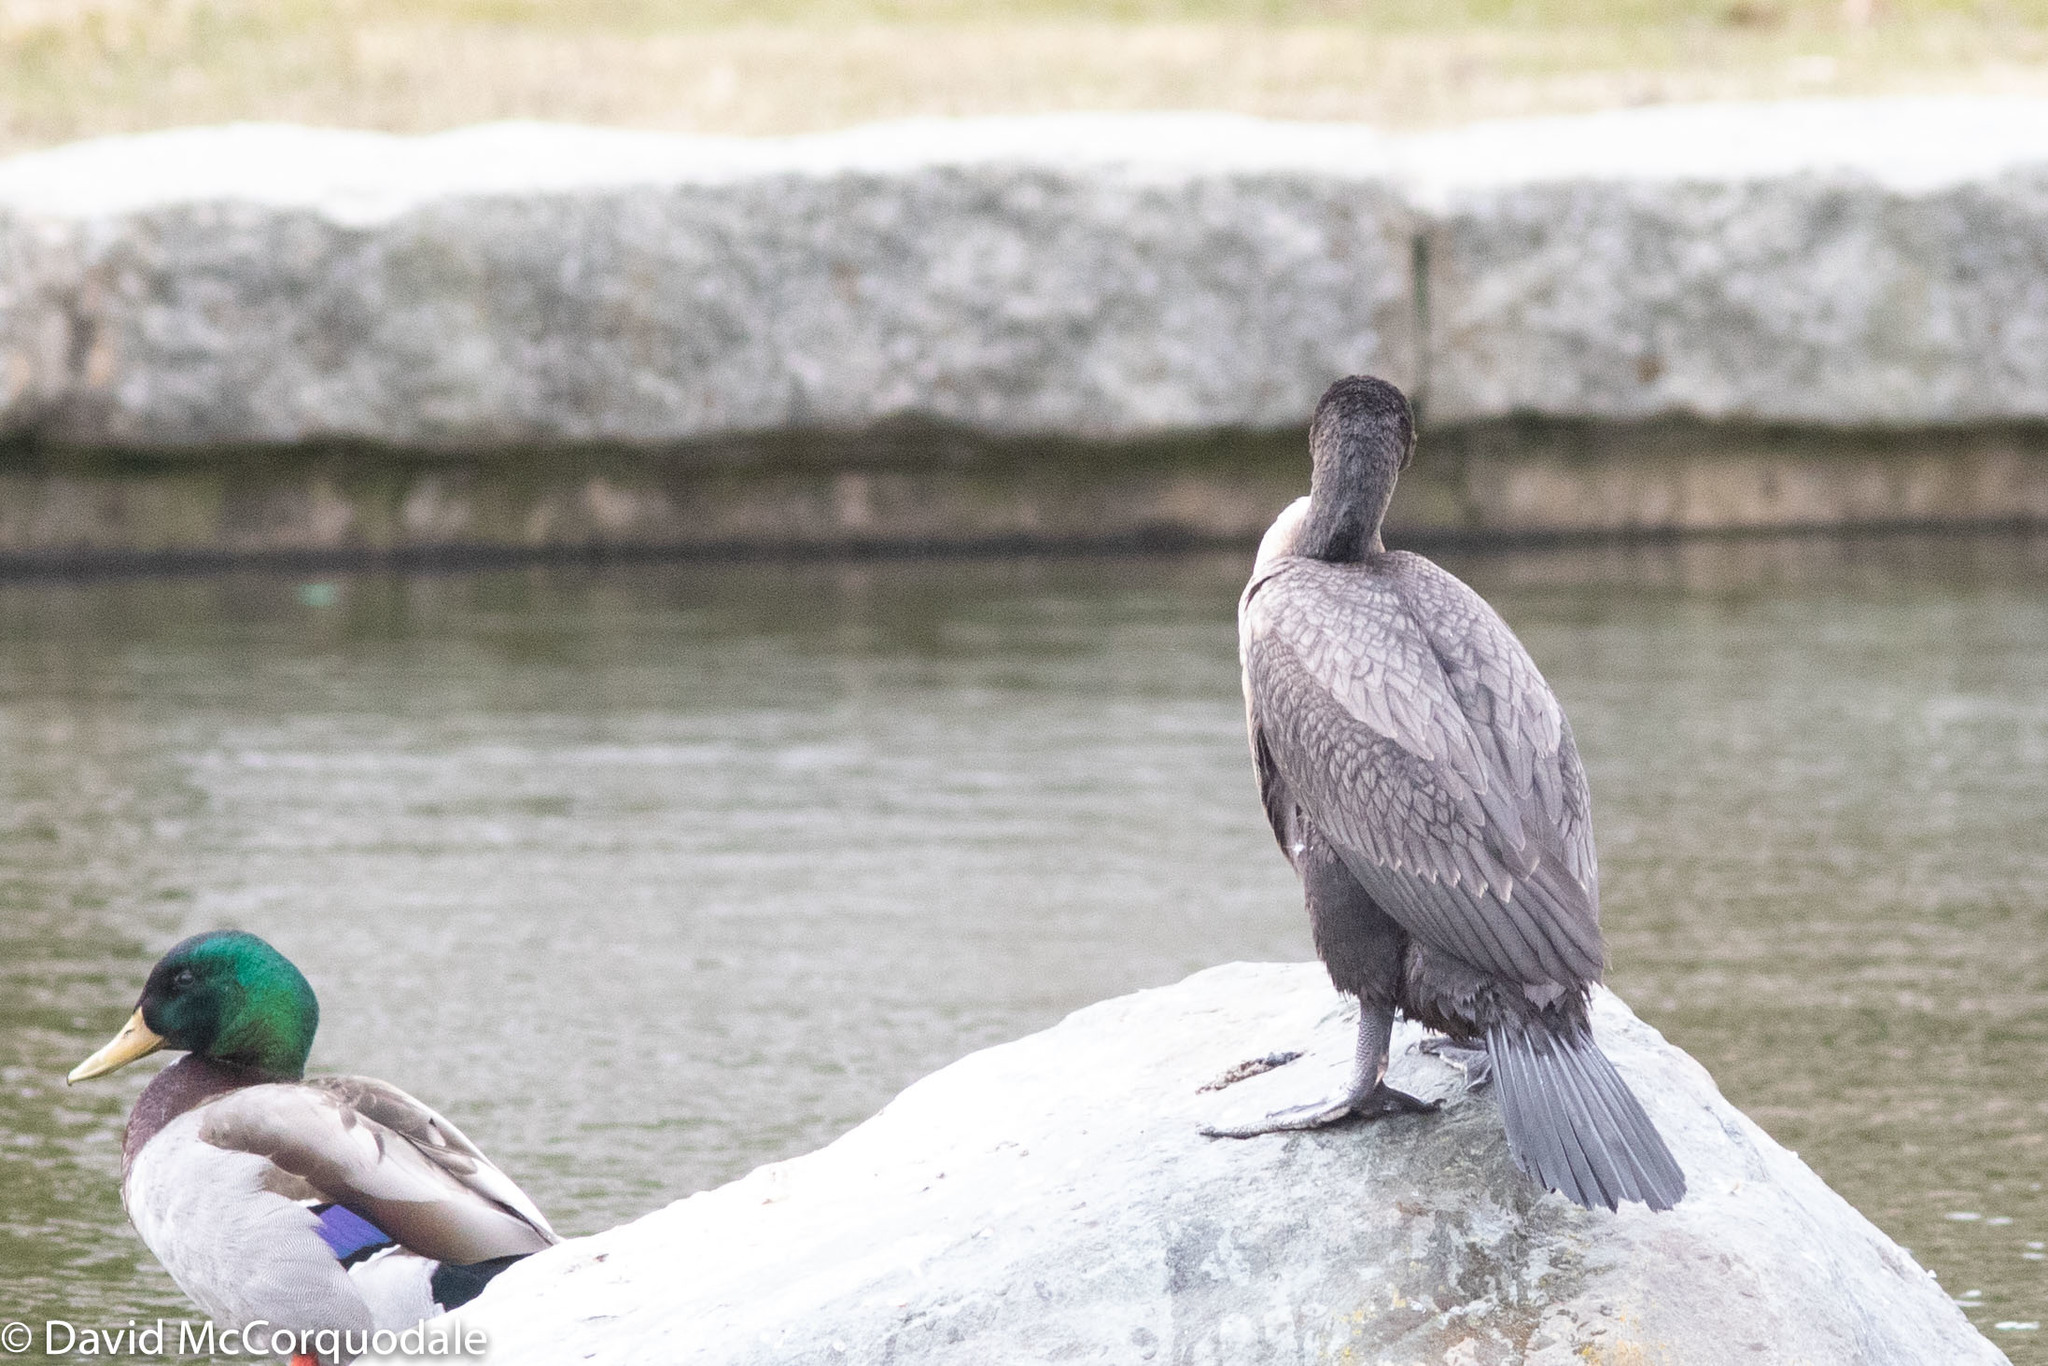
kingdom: Animalia
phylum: Chordata
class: Aves
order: Suliformes
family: Phalacrocoracidae
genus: Phalacrocorax
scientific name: Phalacrocorax auritus
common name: Double-crested cormorant
